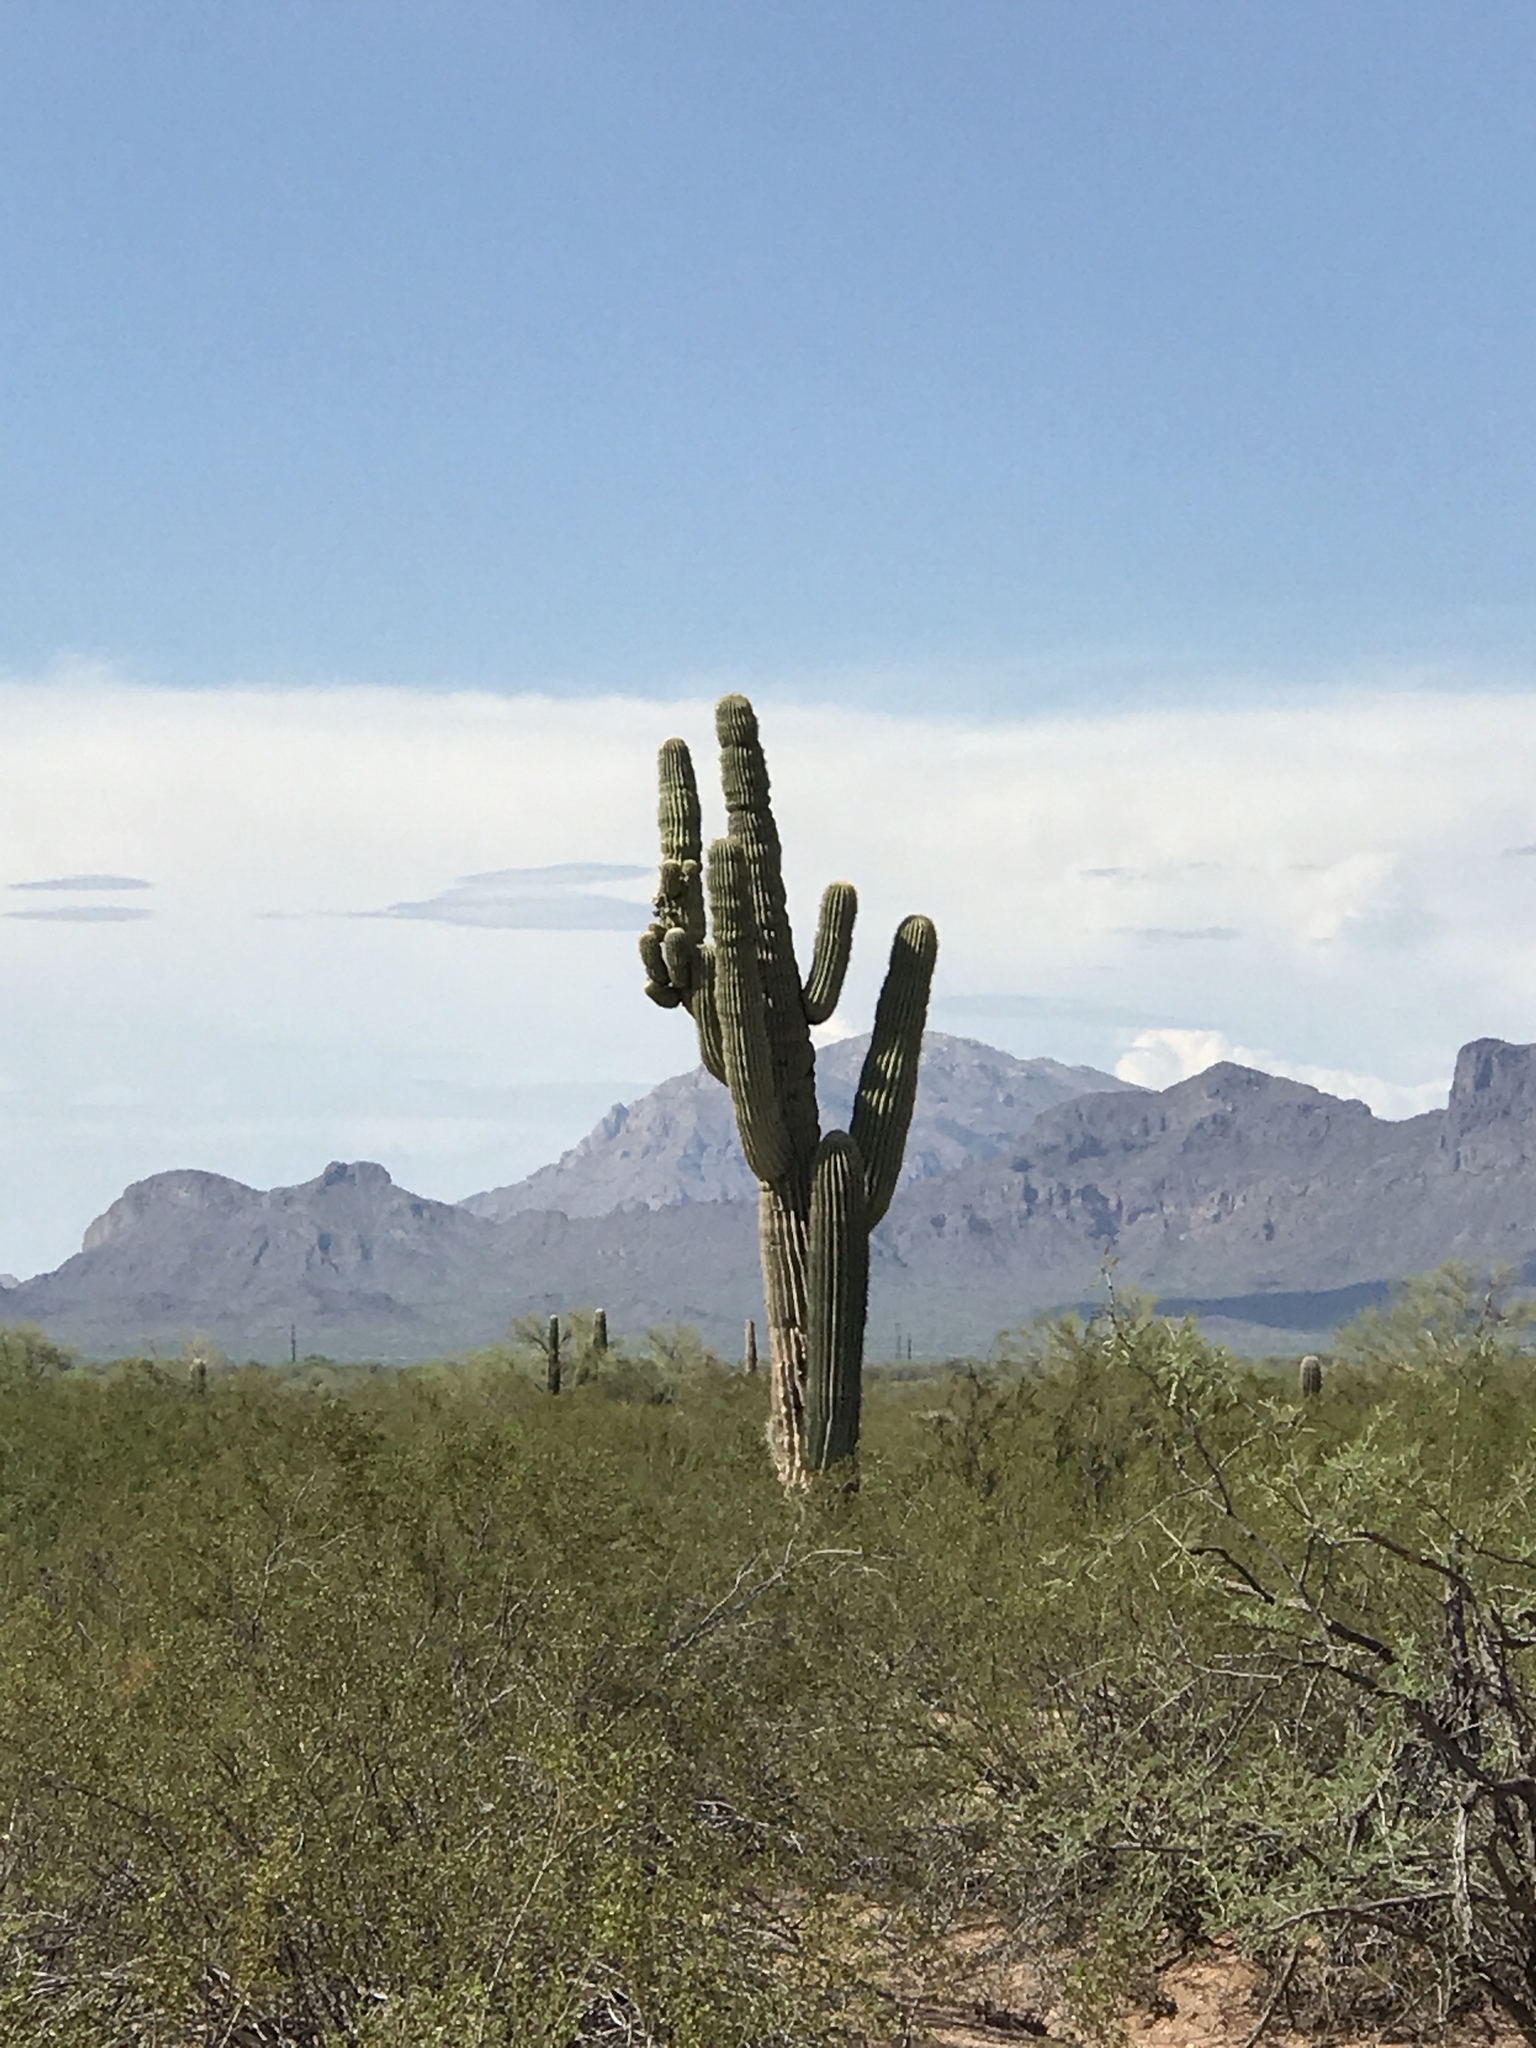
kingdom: Plantae
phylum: Tracheophyta
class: Magnoliopsida
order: Caryophyllales
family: Cactaceae
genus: Carnegiea
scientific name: Carnegiea gigantea
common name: Saguaro
